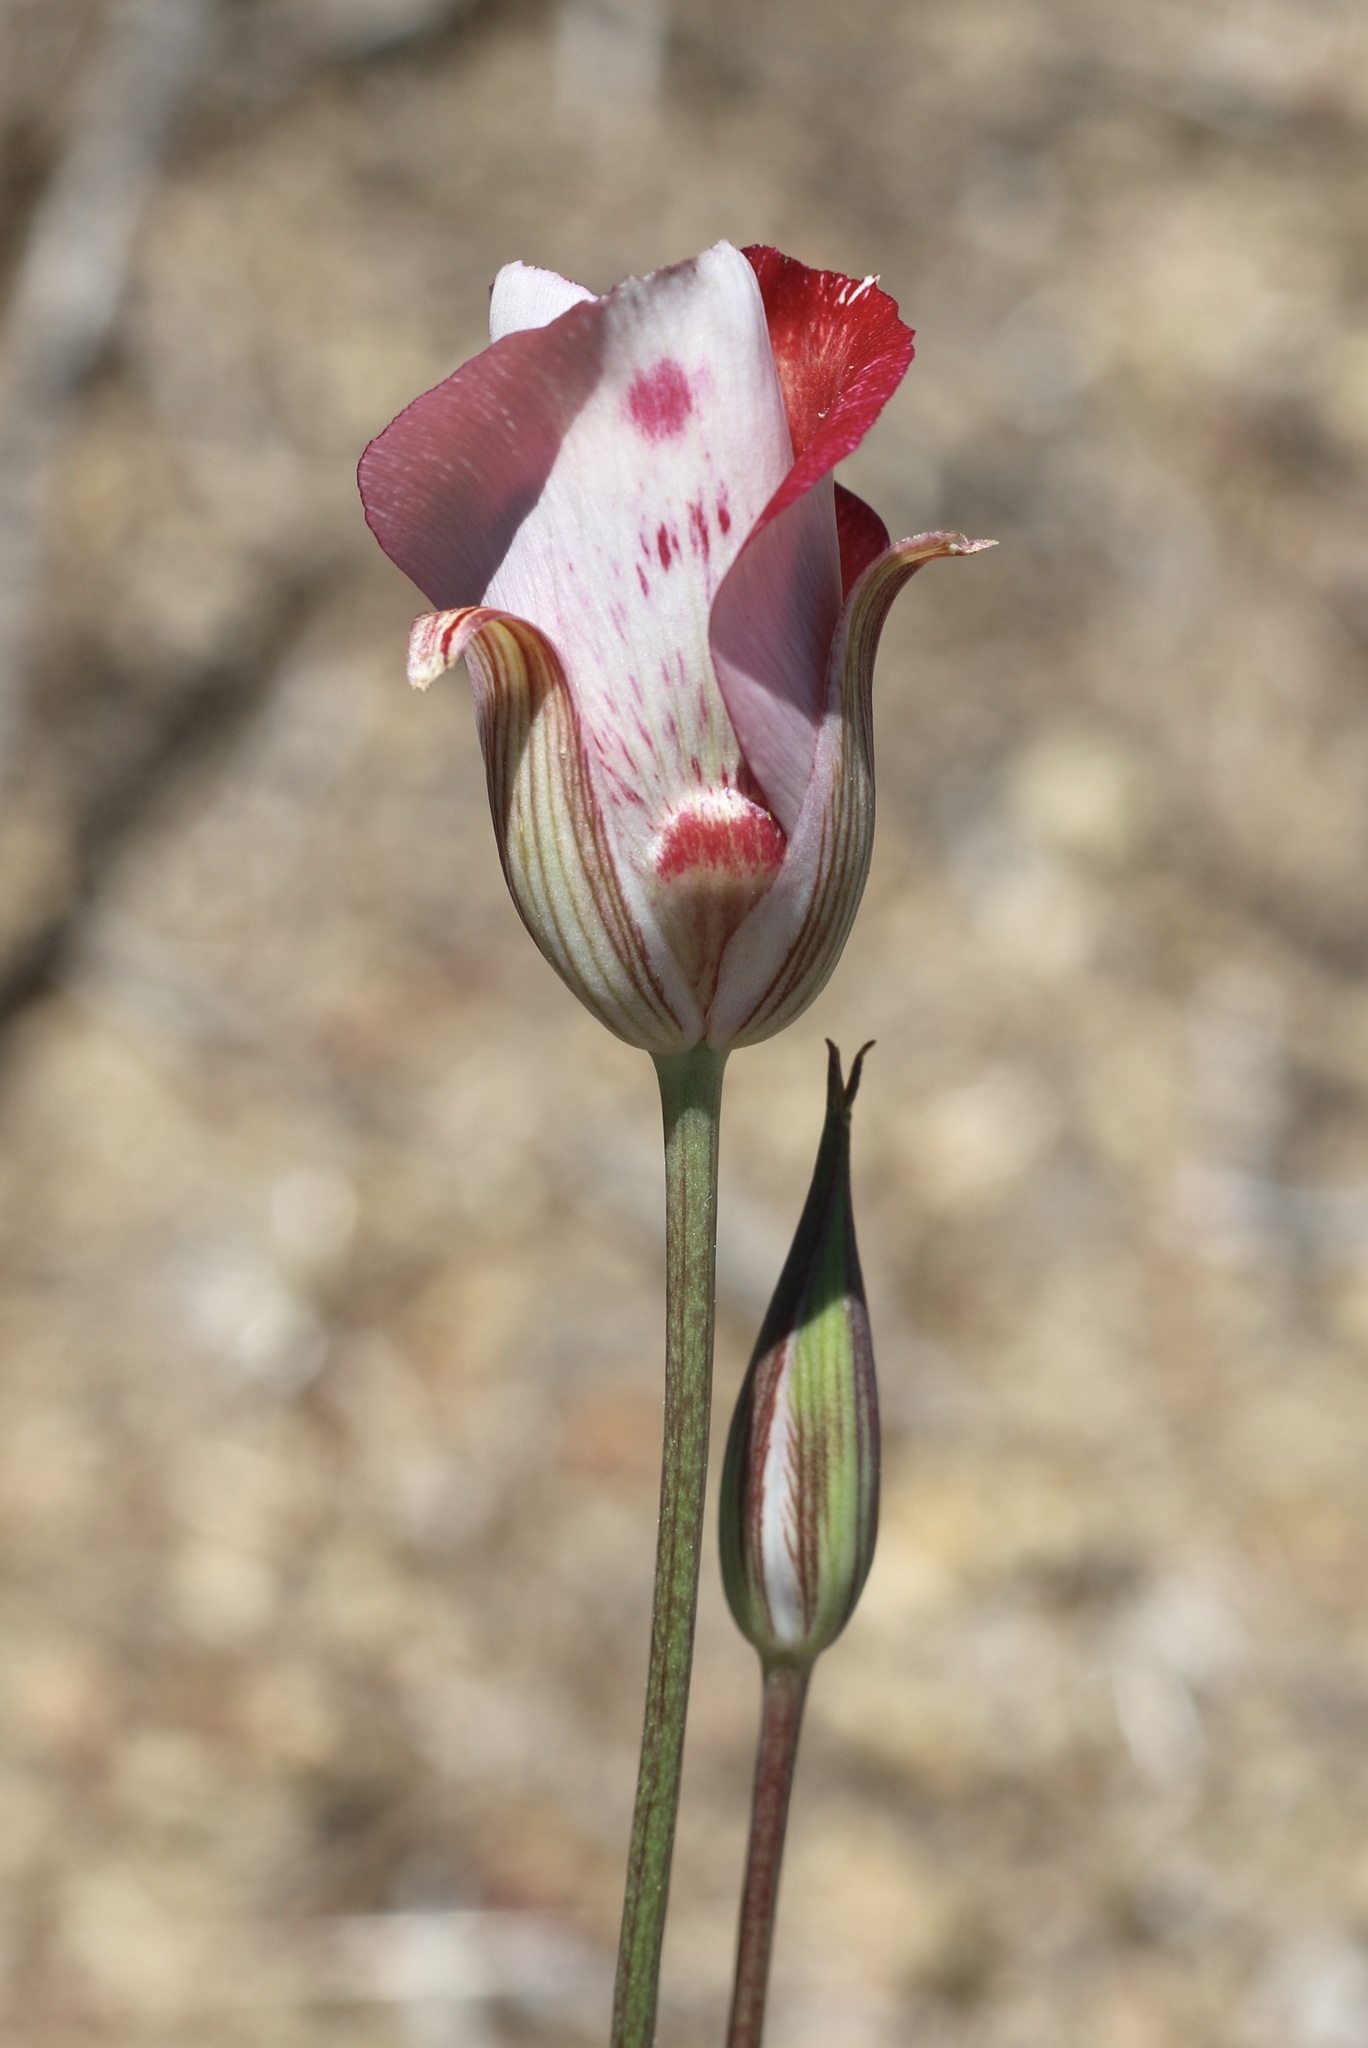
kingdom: Plantae
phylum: Tracheophyta
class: Liliopsida
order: Liliales
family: Liliaceae
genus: Calochortus
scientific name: Calochortus venustus
